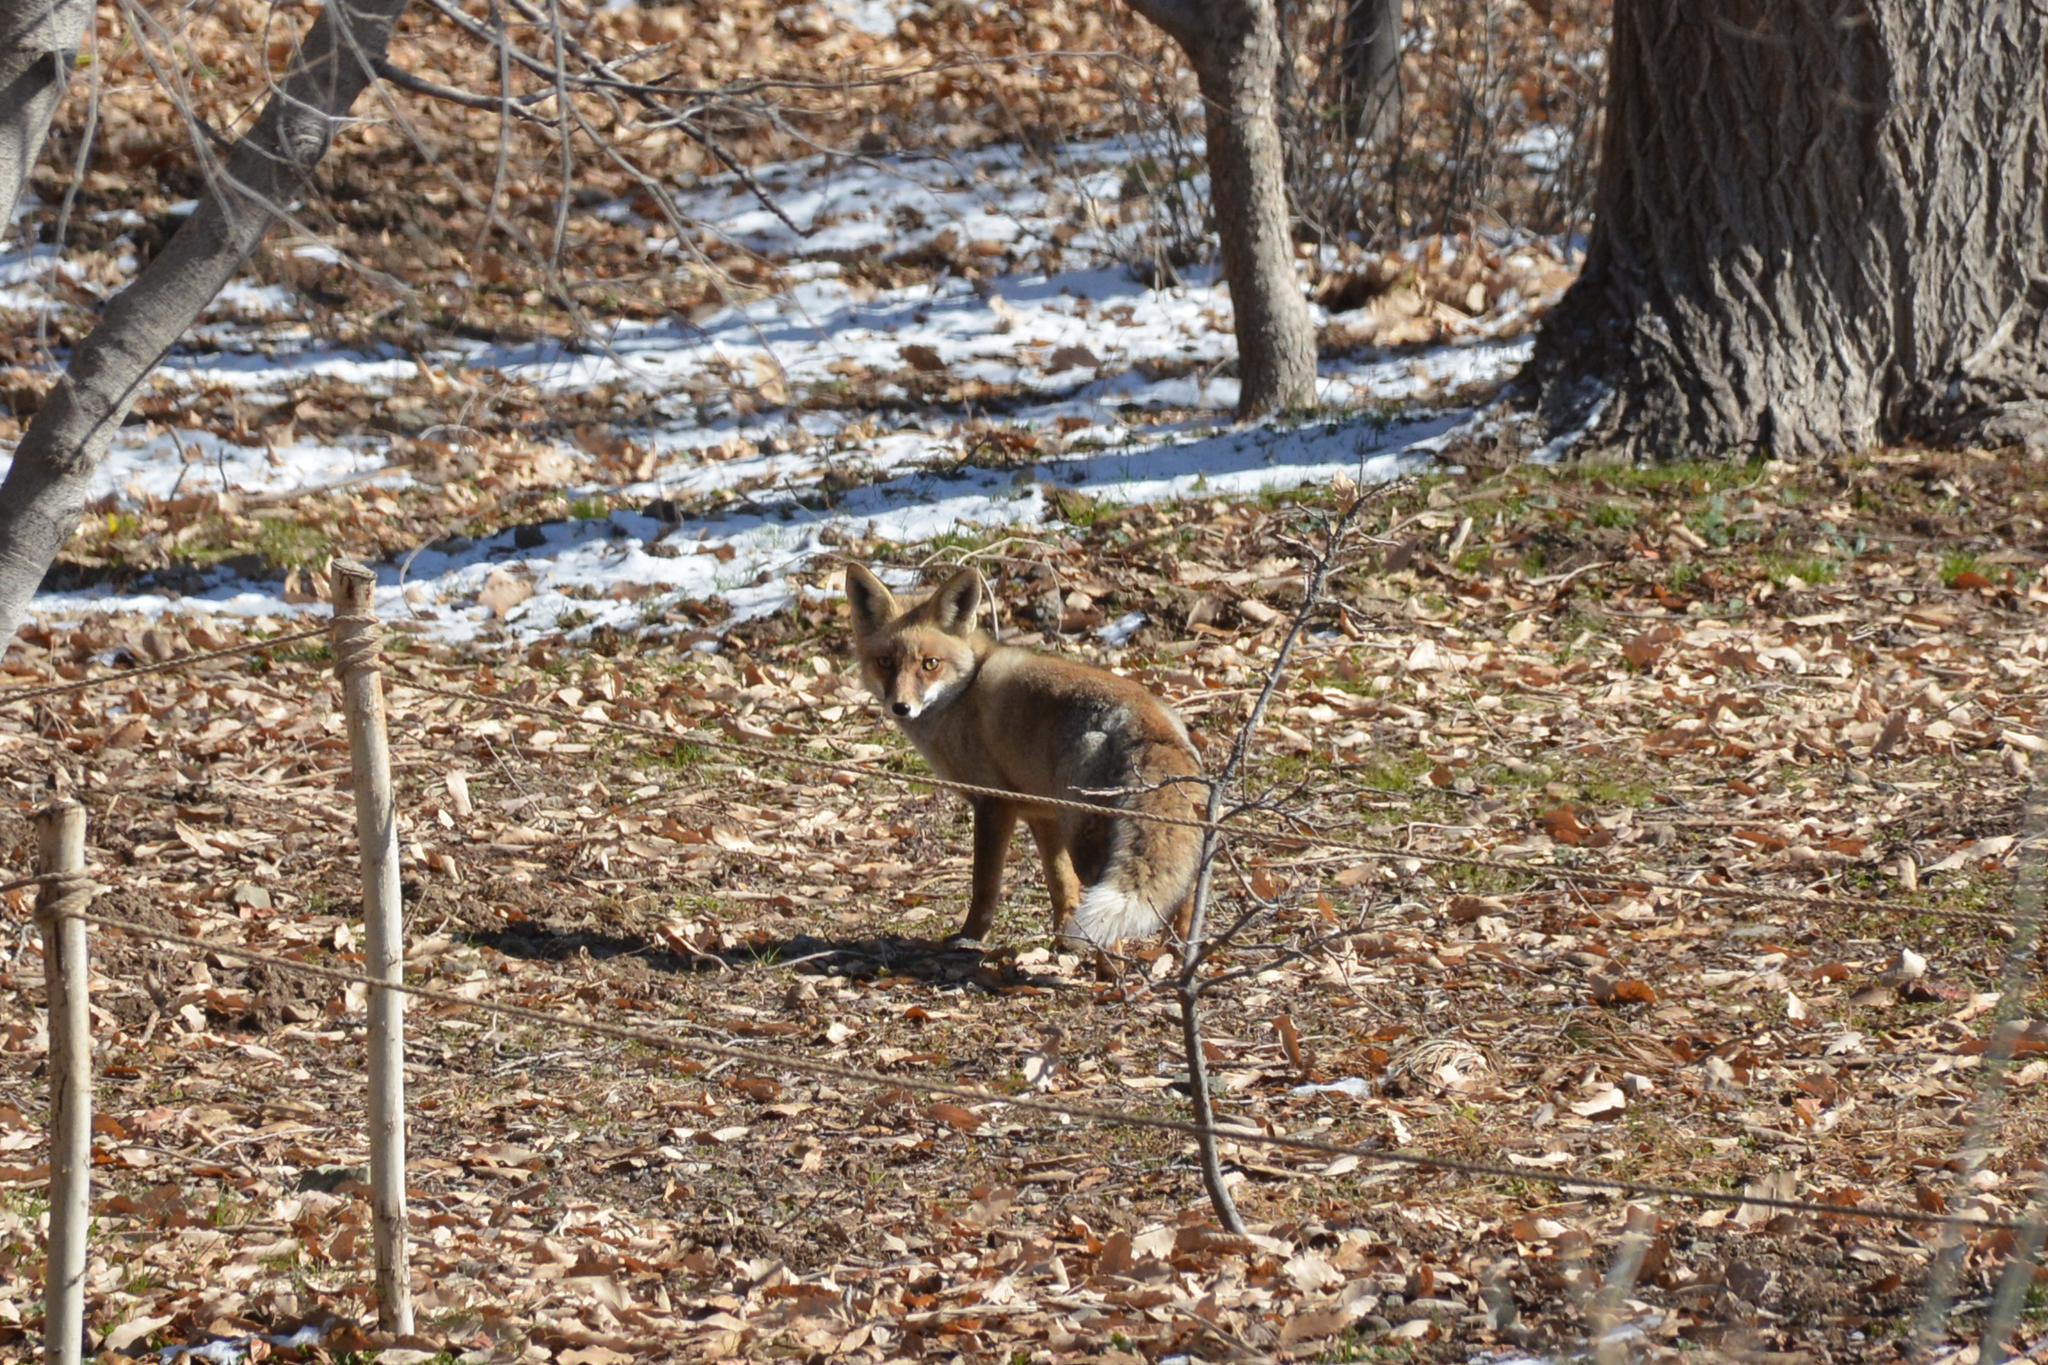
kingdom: Animalia
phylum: Chordata
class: Mammalia
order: Carnivora
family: Canidae
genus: Vulpes
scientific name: Vulpes vulpes
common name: Red fox
